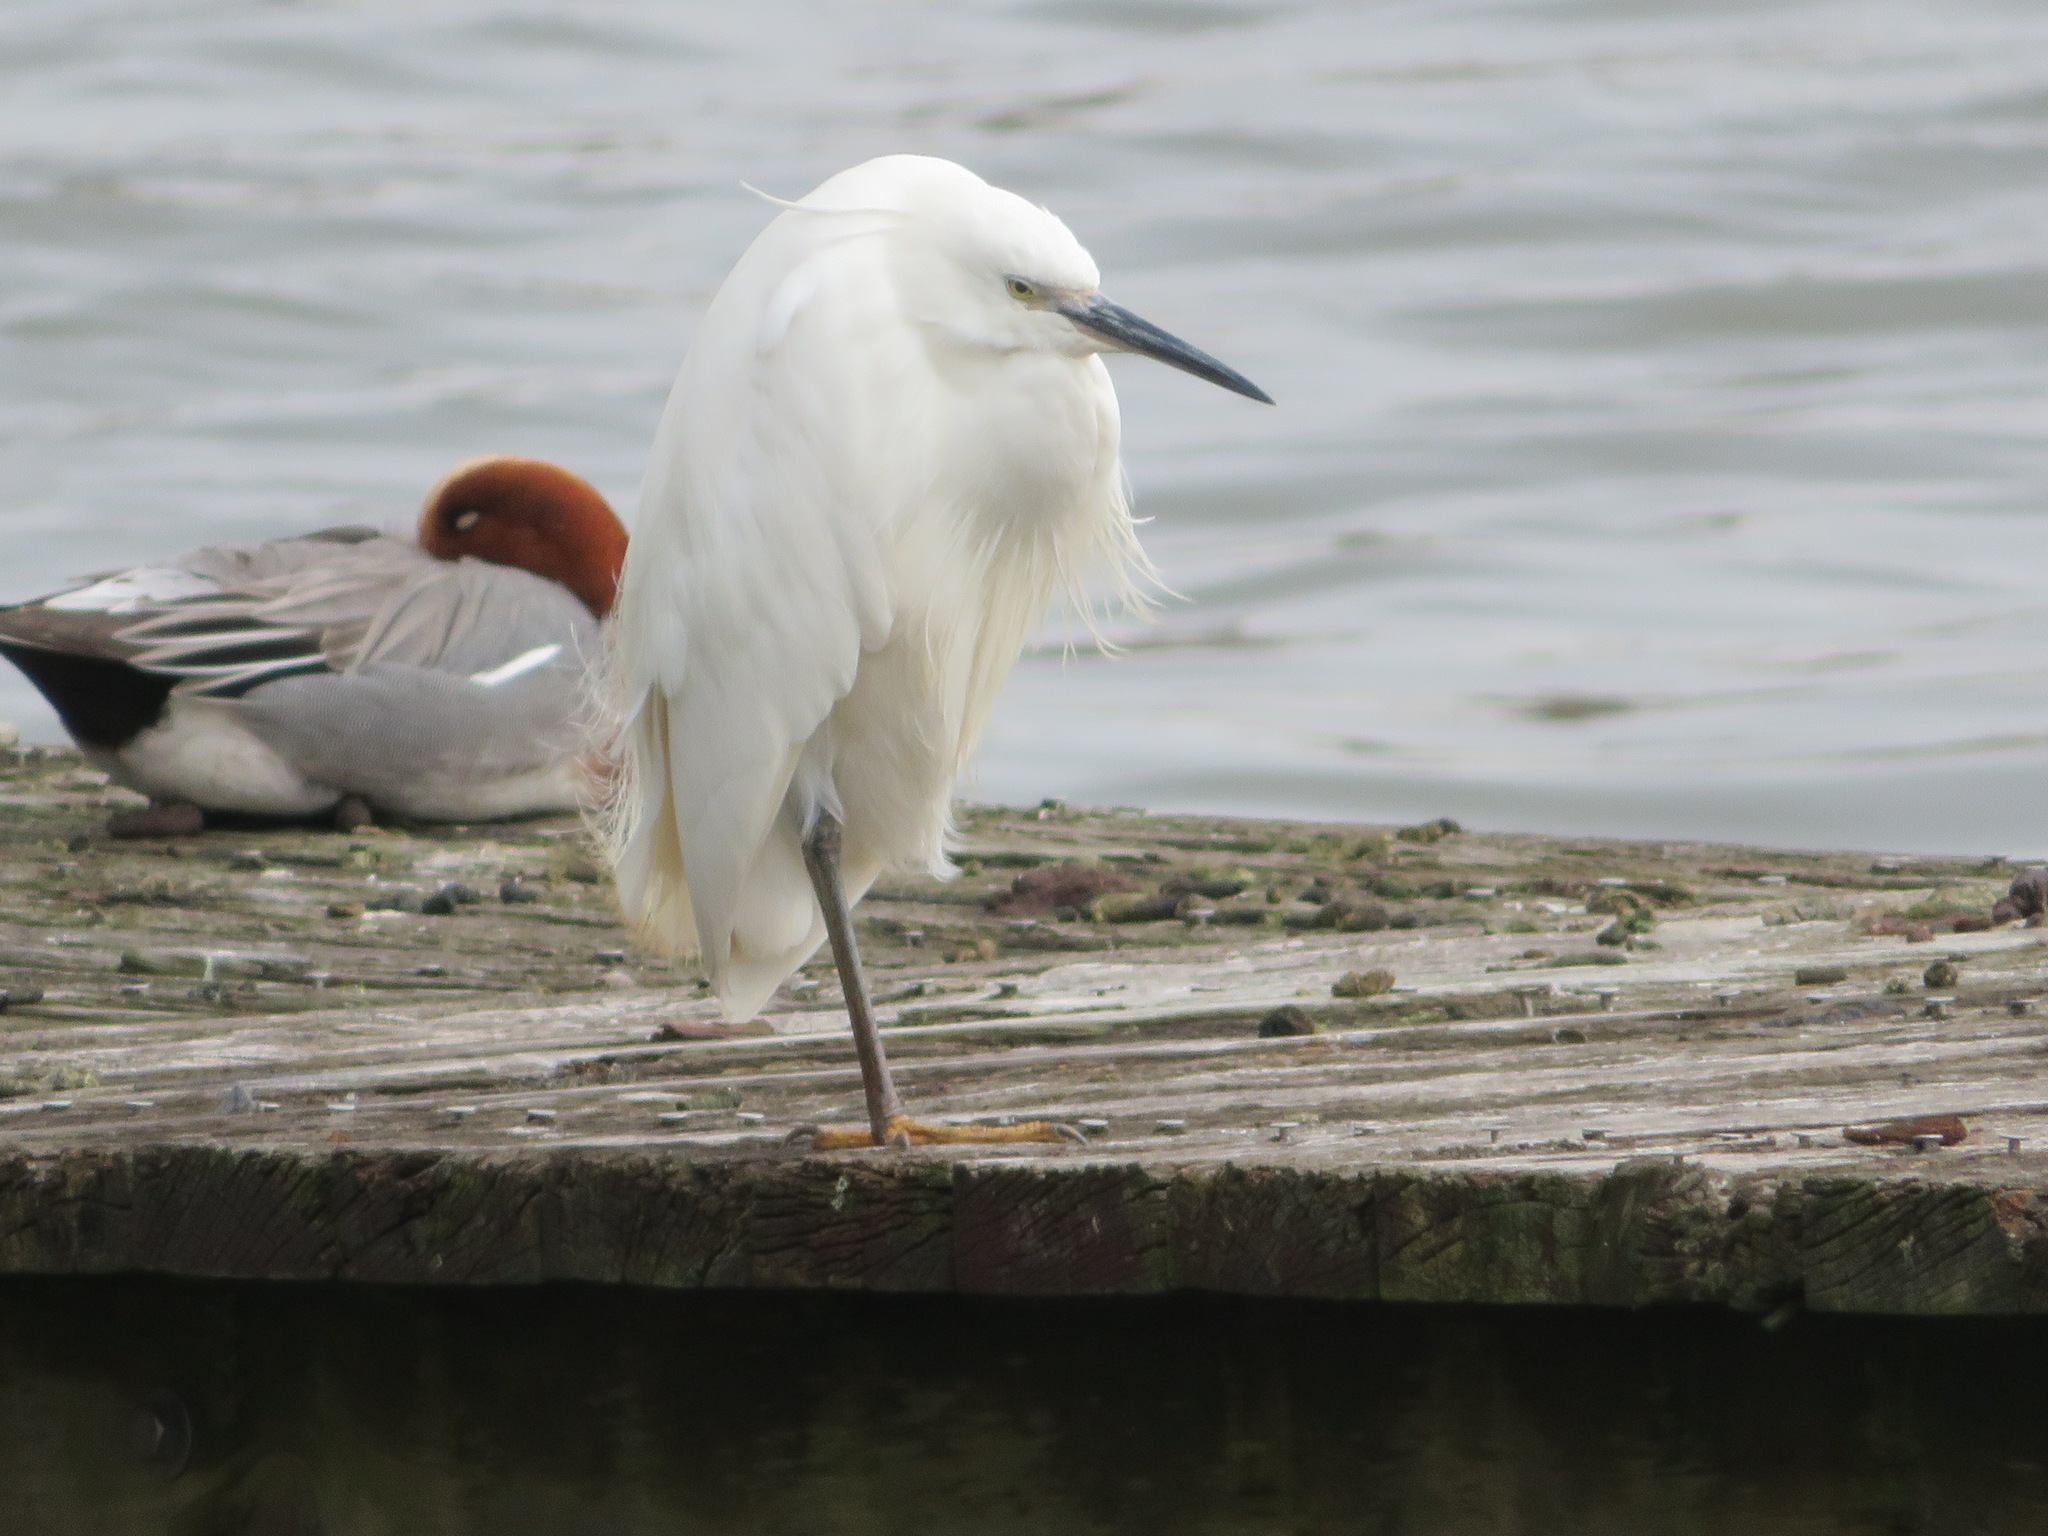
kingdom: Animalia
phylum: Chordata
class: Aves
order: Pelecaniformes
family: Ardeidae
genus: Egretta
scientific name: Egretta garzetta
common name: Little egret
